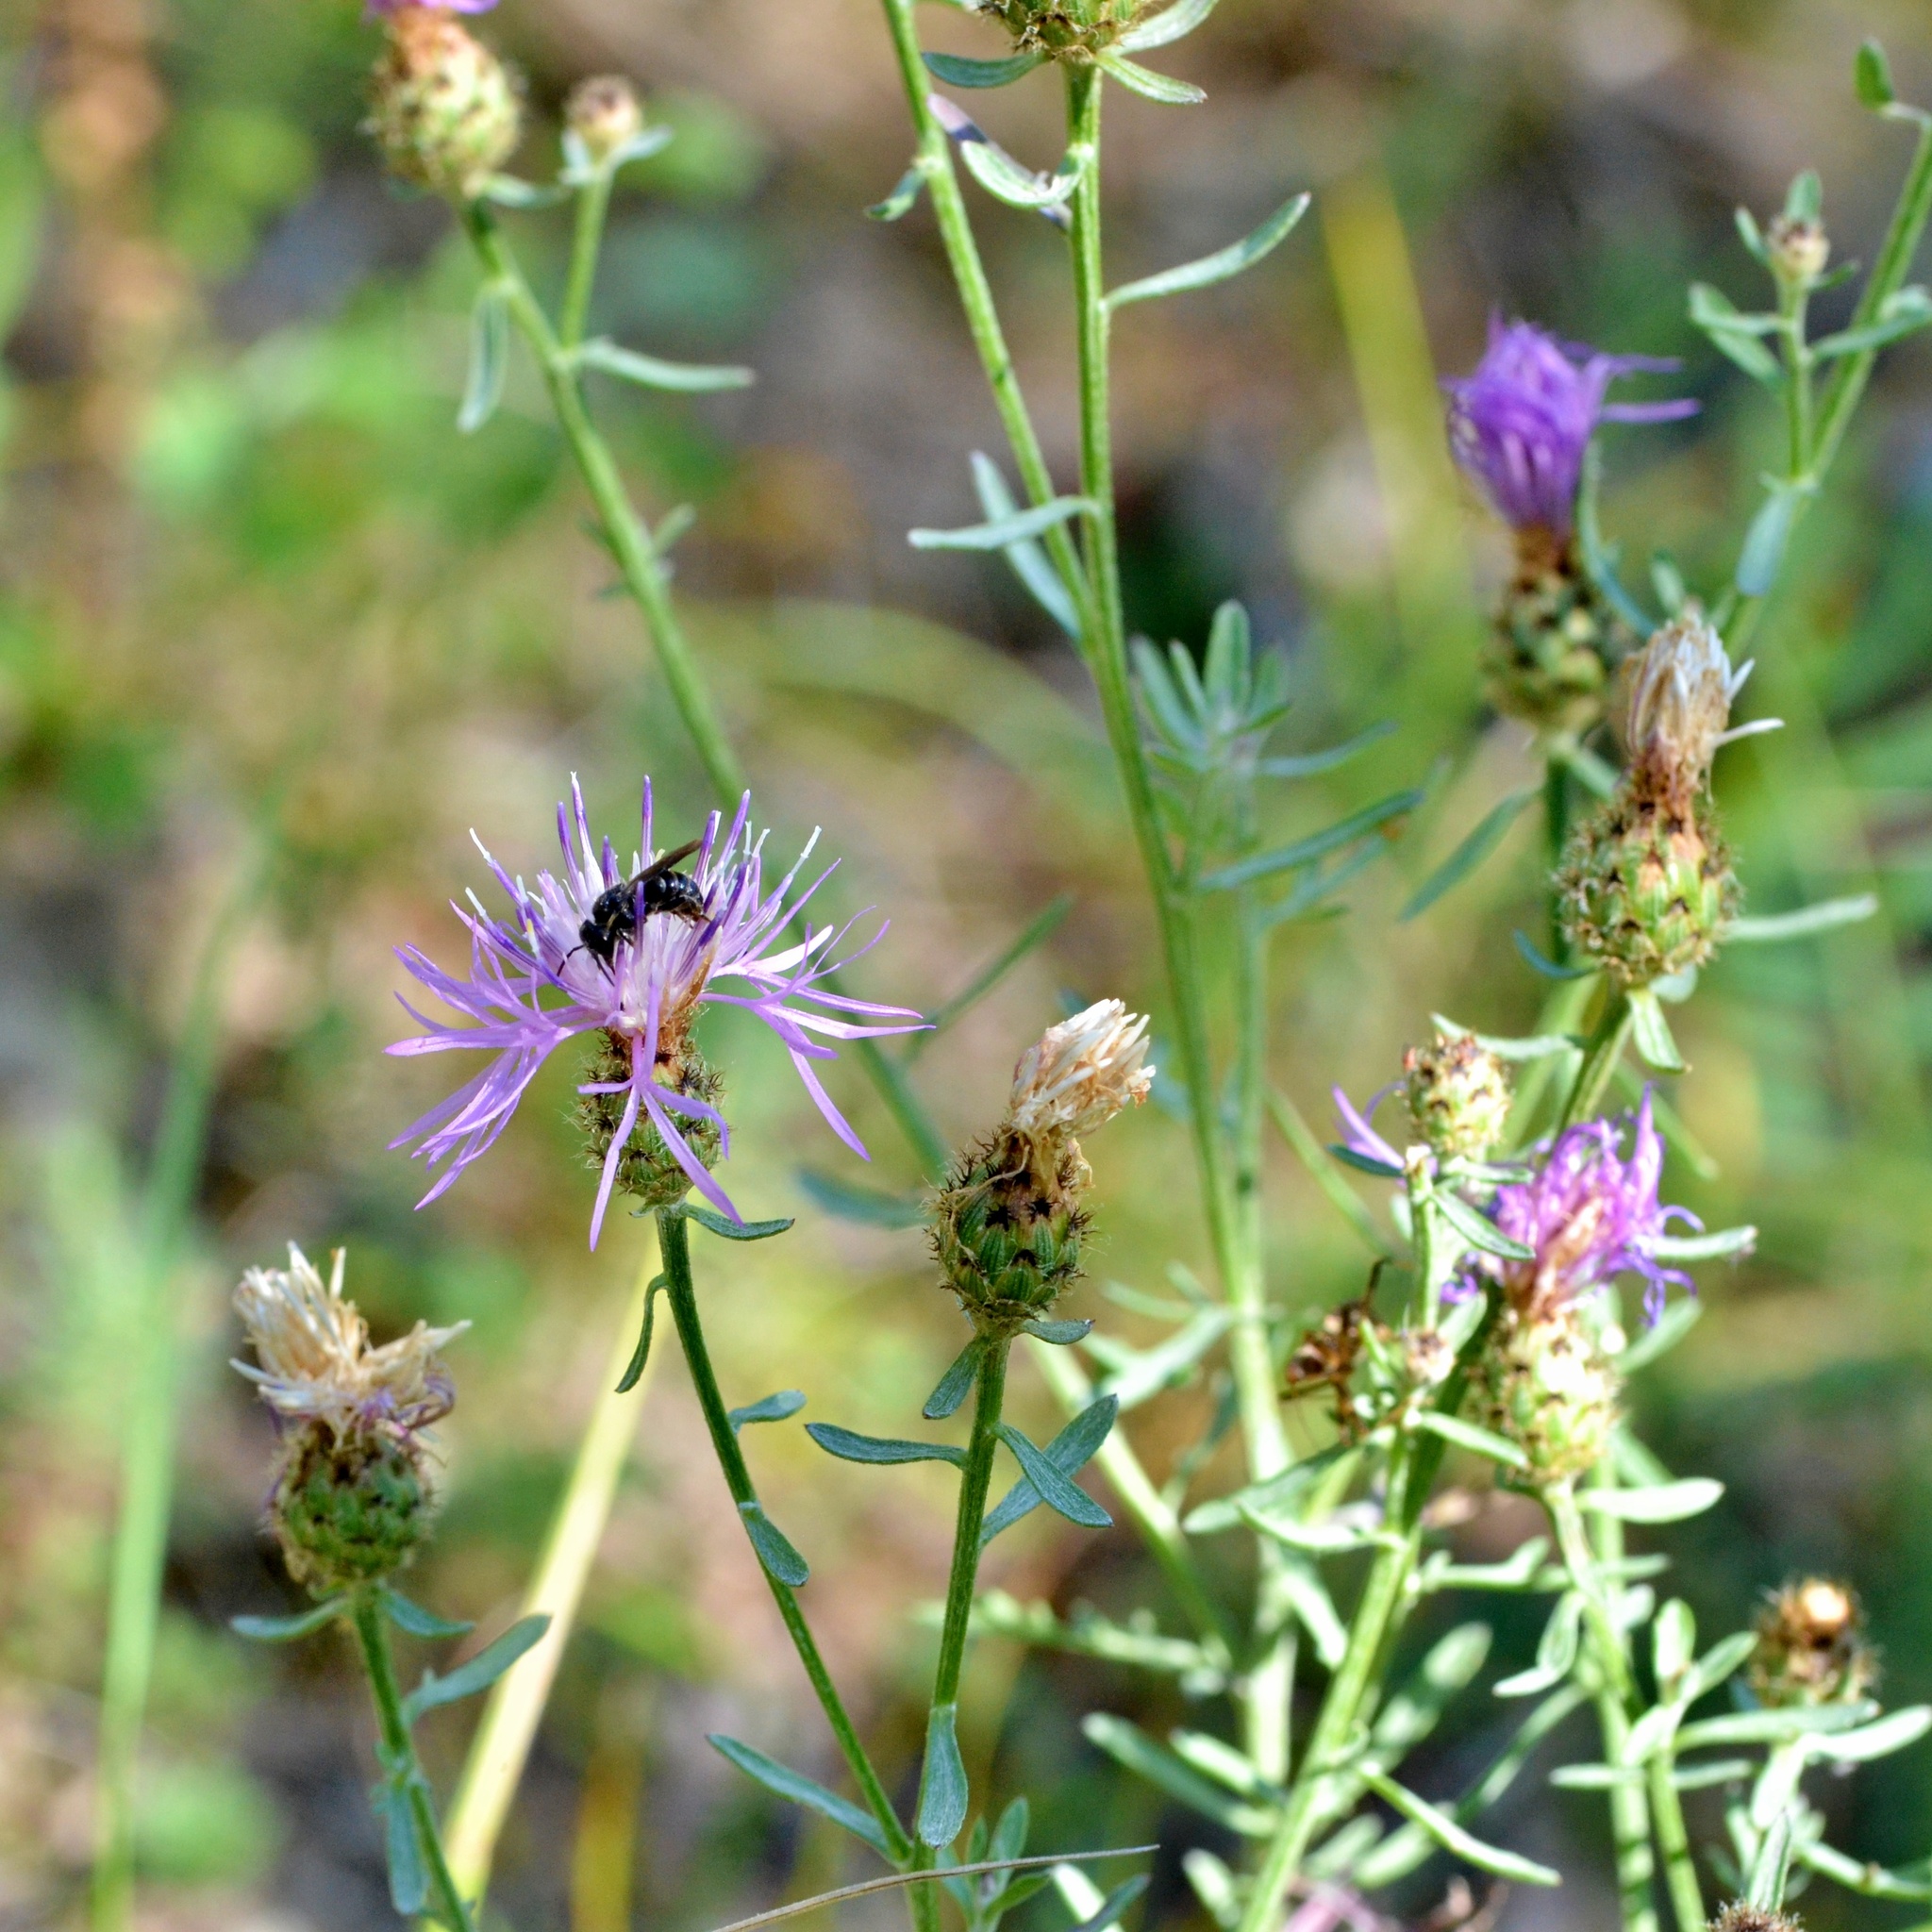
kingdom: Plantae
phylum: Tracheophyta
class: Magnoliopsida
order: Asterales
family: Asteraceae
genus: Centaurea
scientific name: Centaurea stoebe
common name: Spotted knapweed
